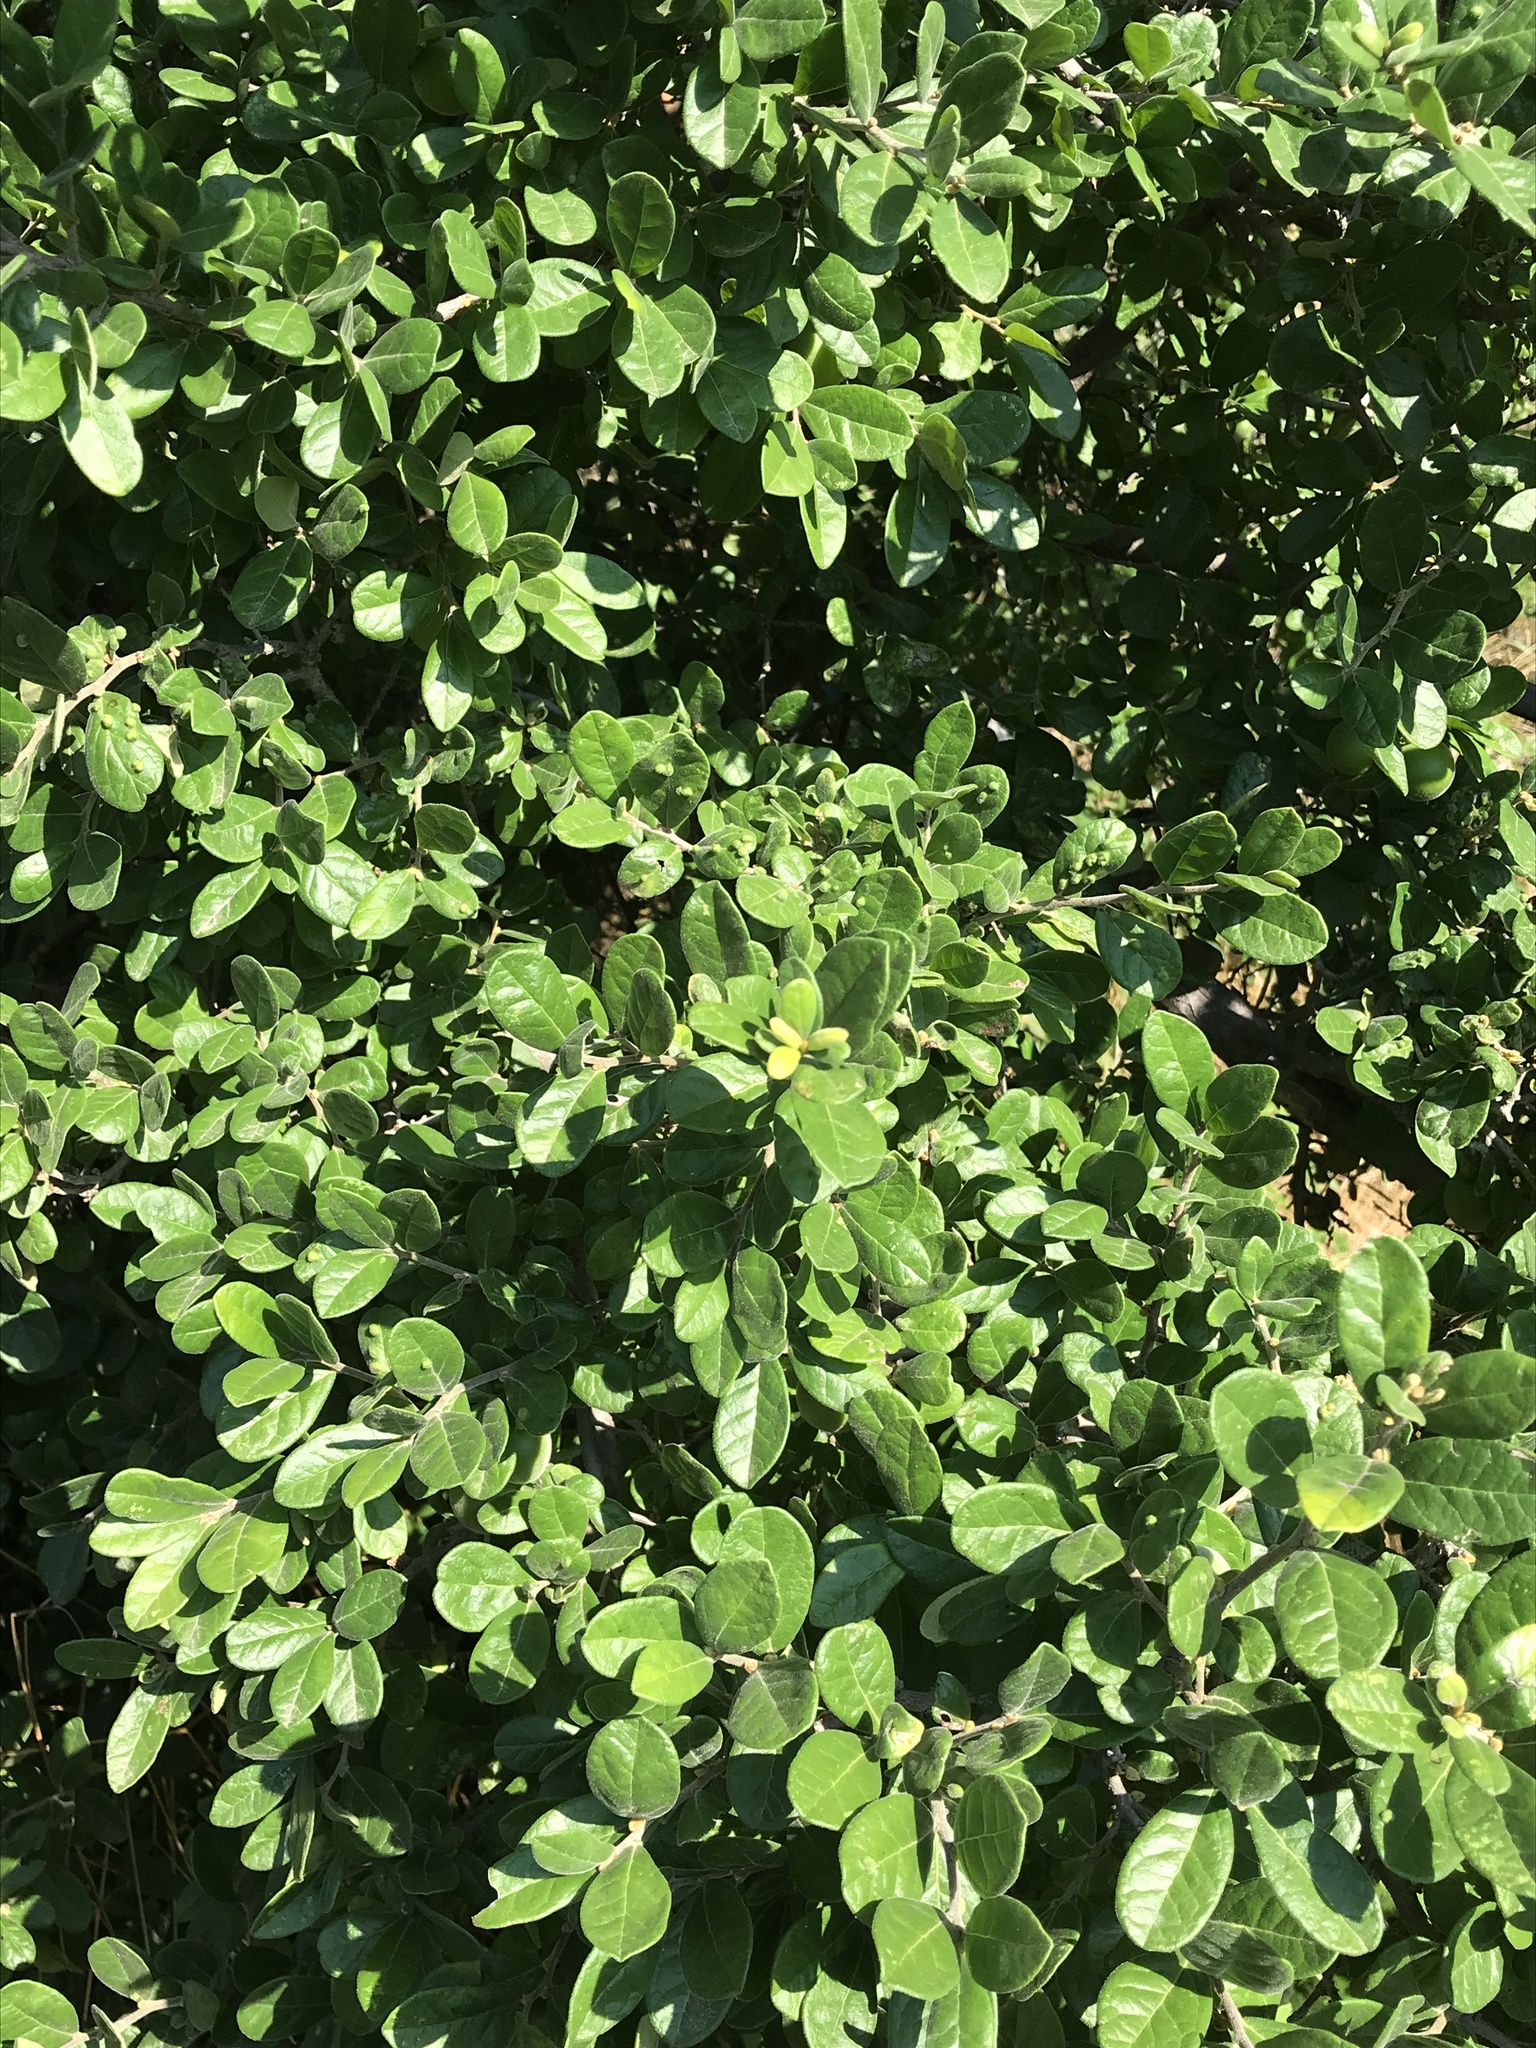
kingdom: Plantae
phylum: Tracheophyta
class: Magnoliopsida
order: Ericales
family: Ebenaceae
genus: Diospyros
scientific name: Diospyros texana
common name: Texas persimmon
